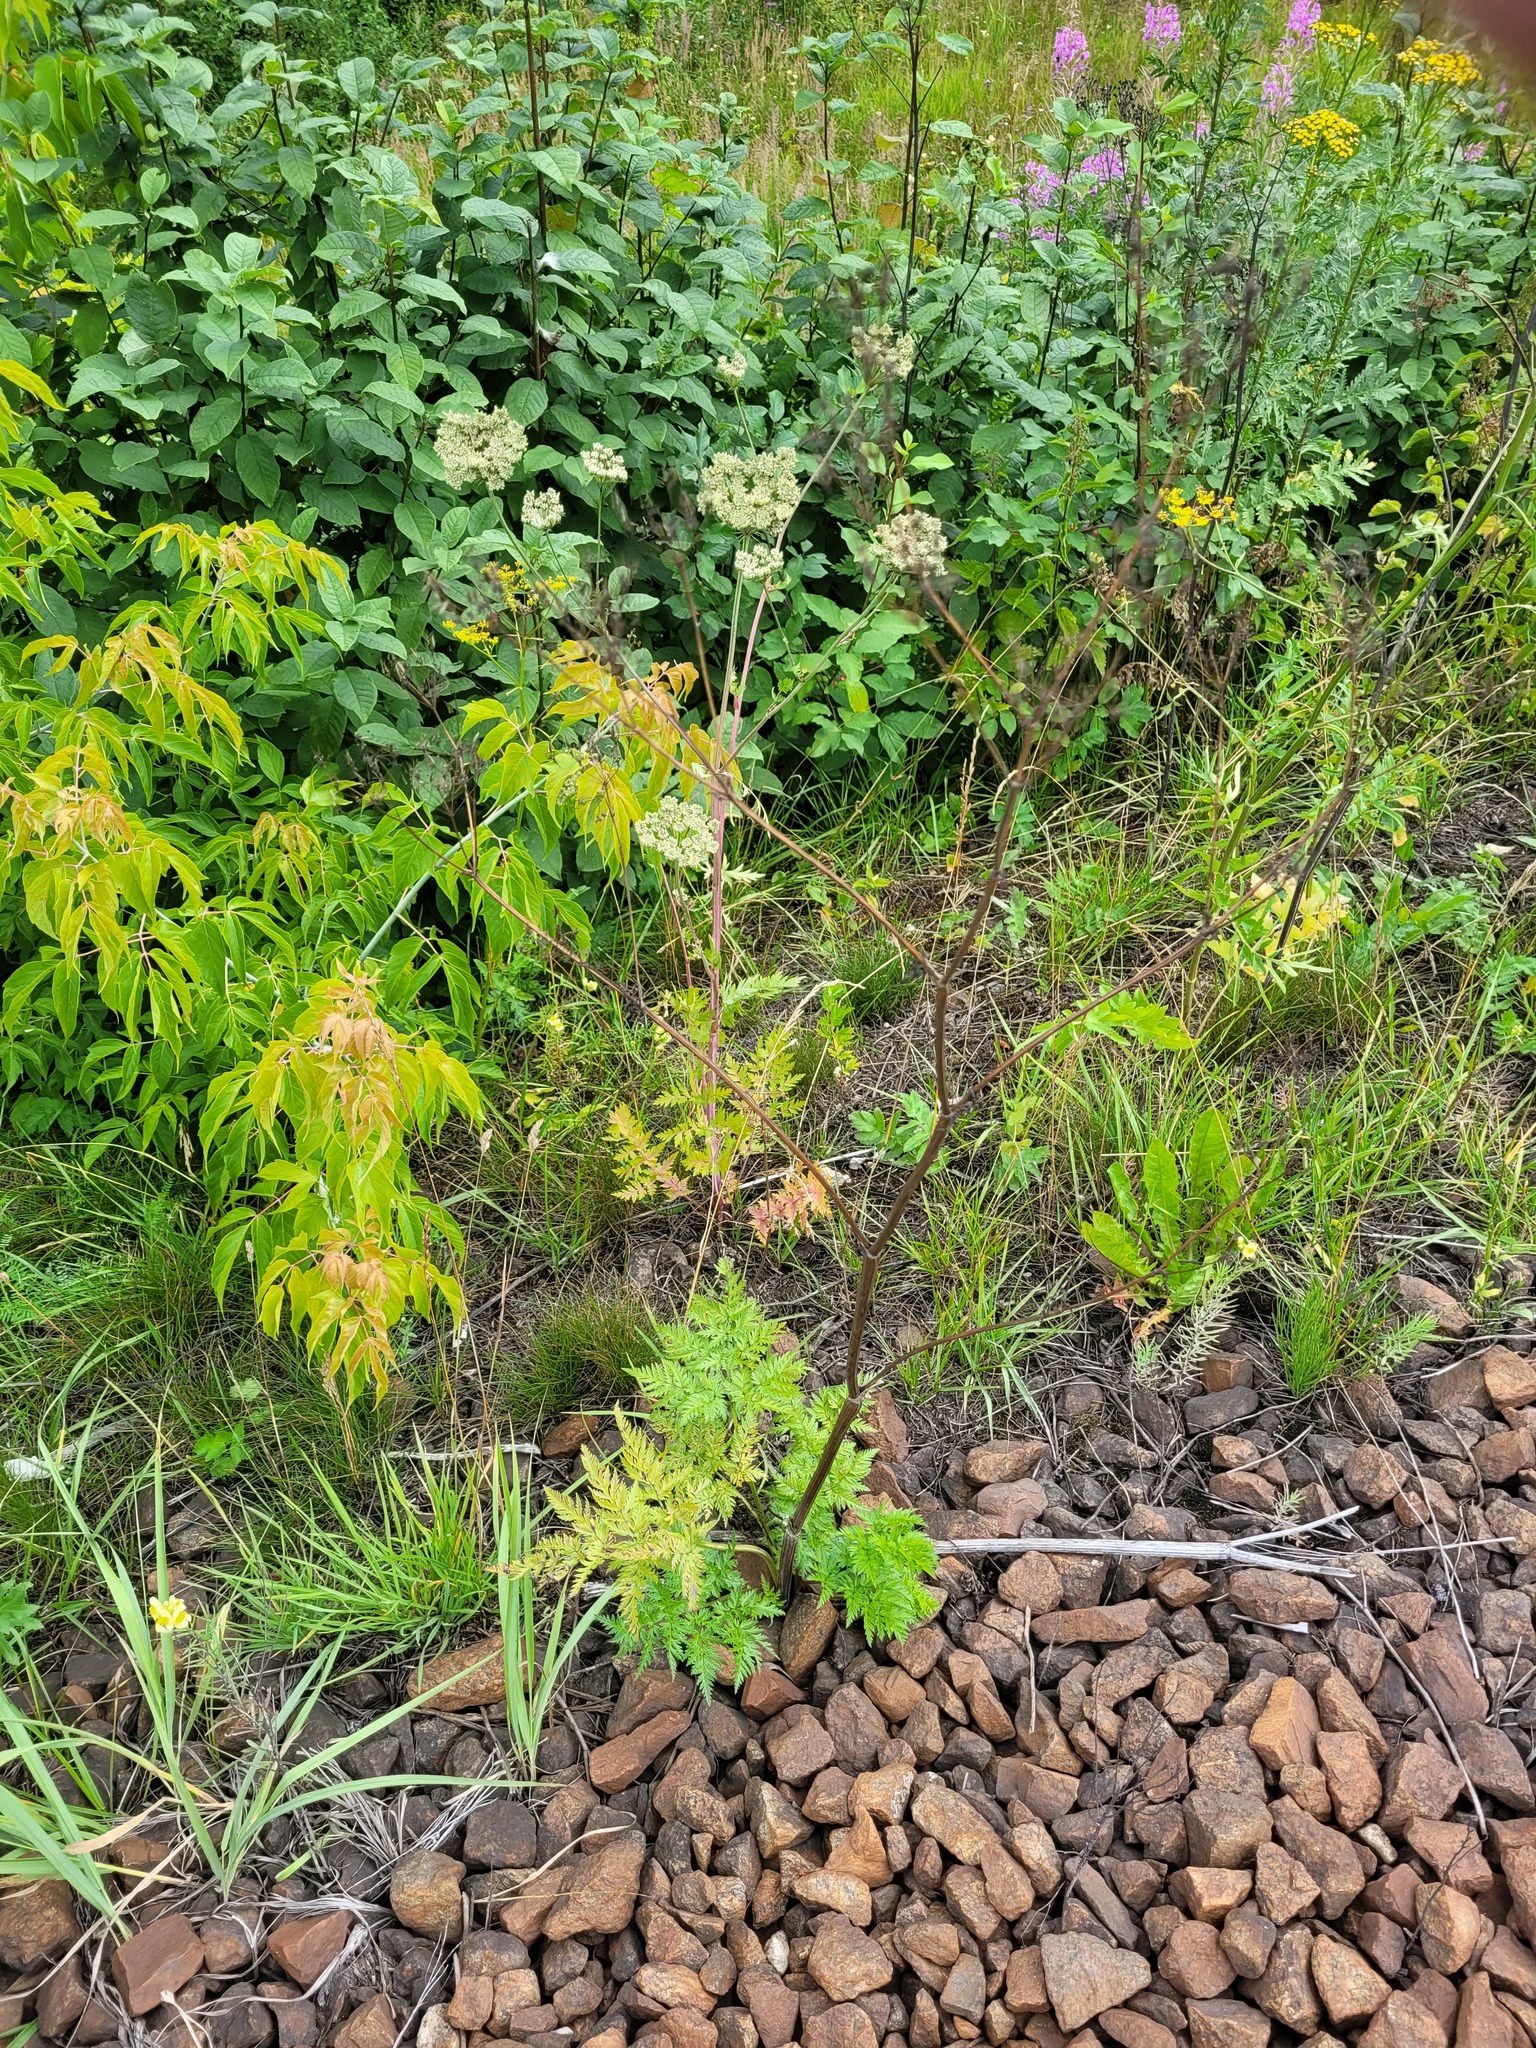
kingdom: Plantae
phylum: Tracheophyta
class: Magnoliopsida
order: Apiales
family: Apiaceae
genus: Seseli
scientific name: Seseli libanotis
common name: Mooncarrot
